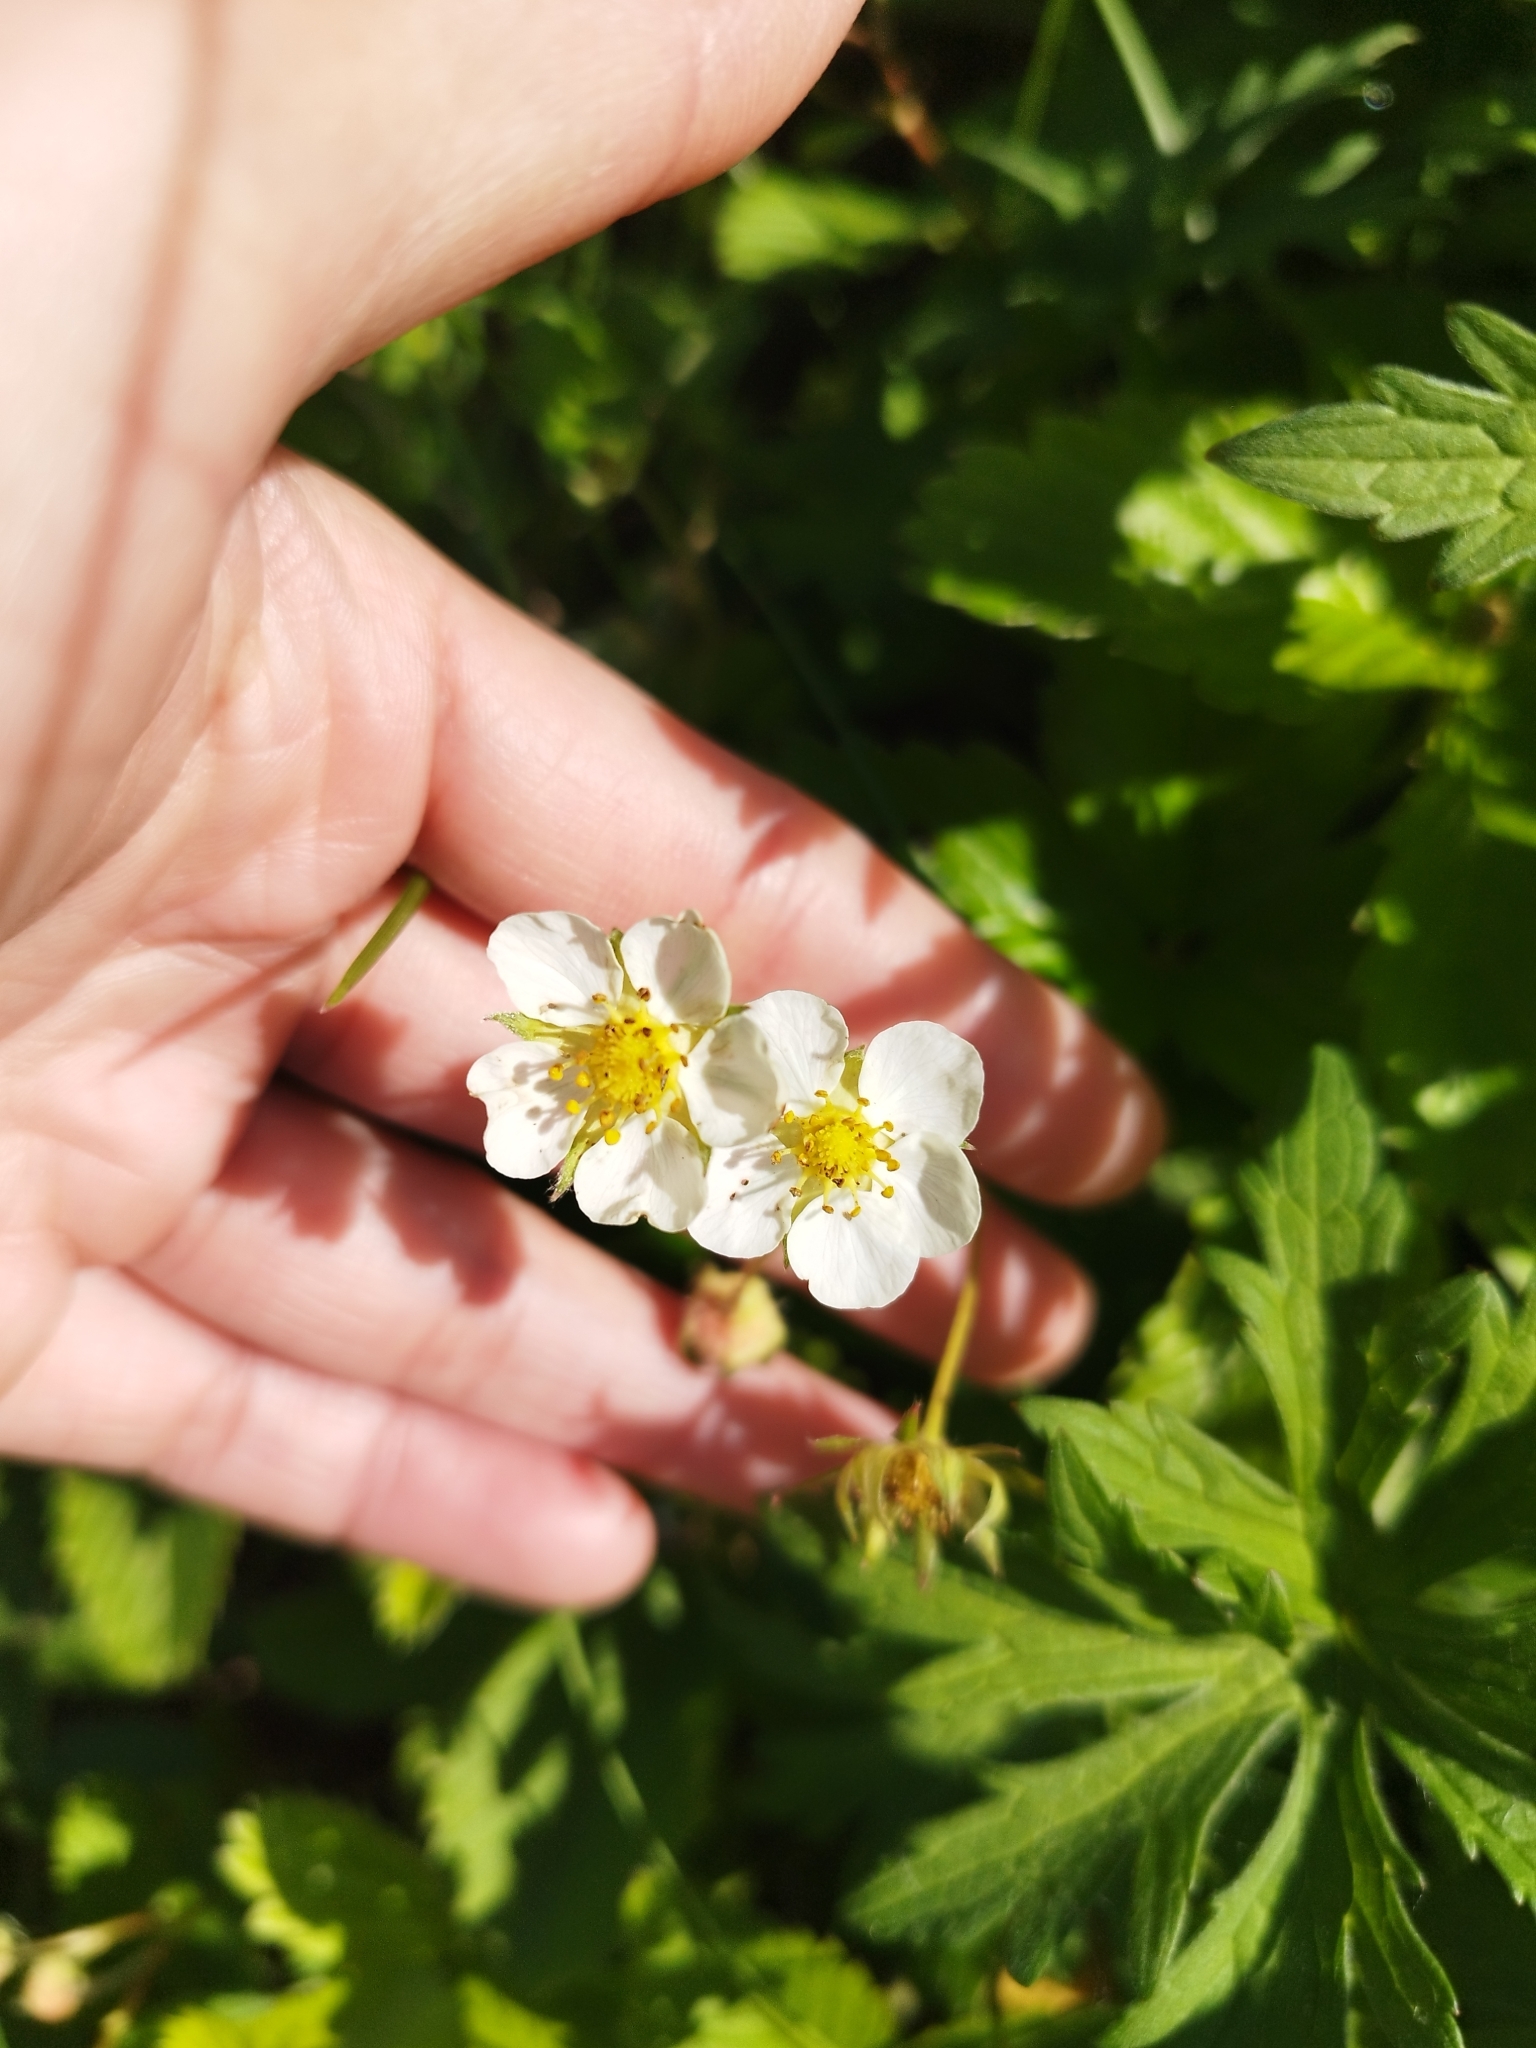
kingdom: Plantae
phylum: Tracheophyta
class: Magnoliopsida
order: Rosales
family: Rosaceae
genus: Fragaria
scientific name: Fragaria viridis
